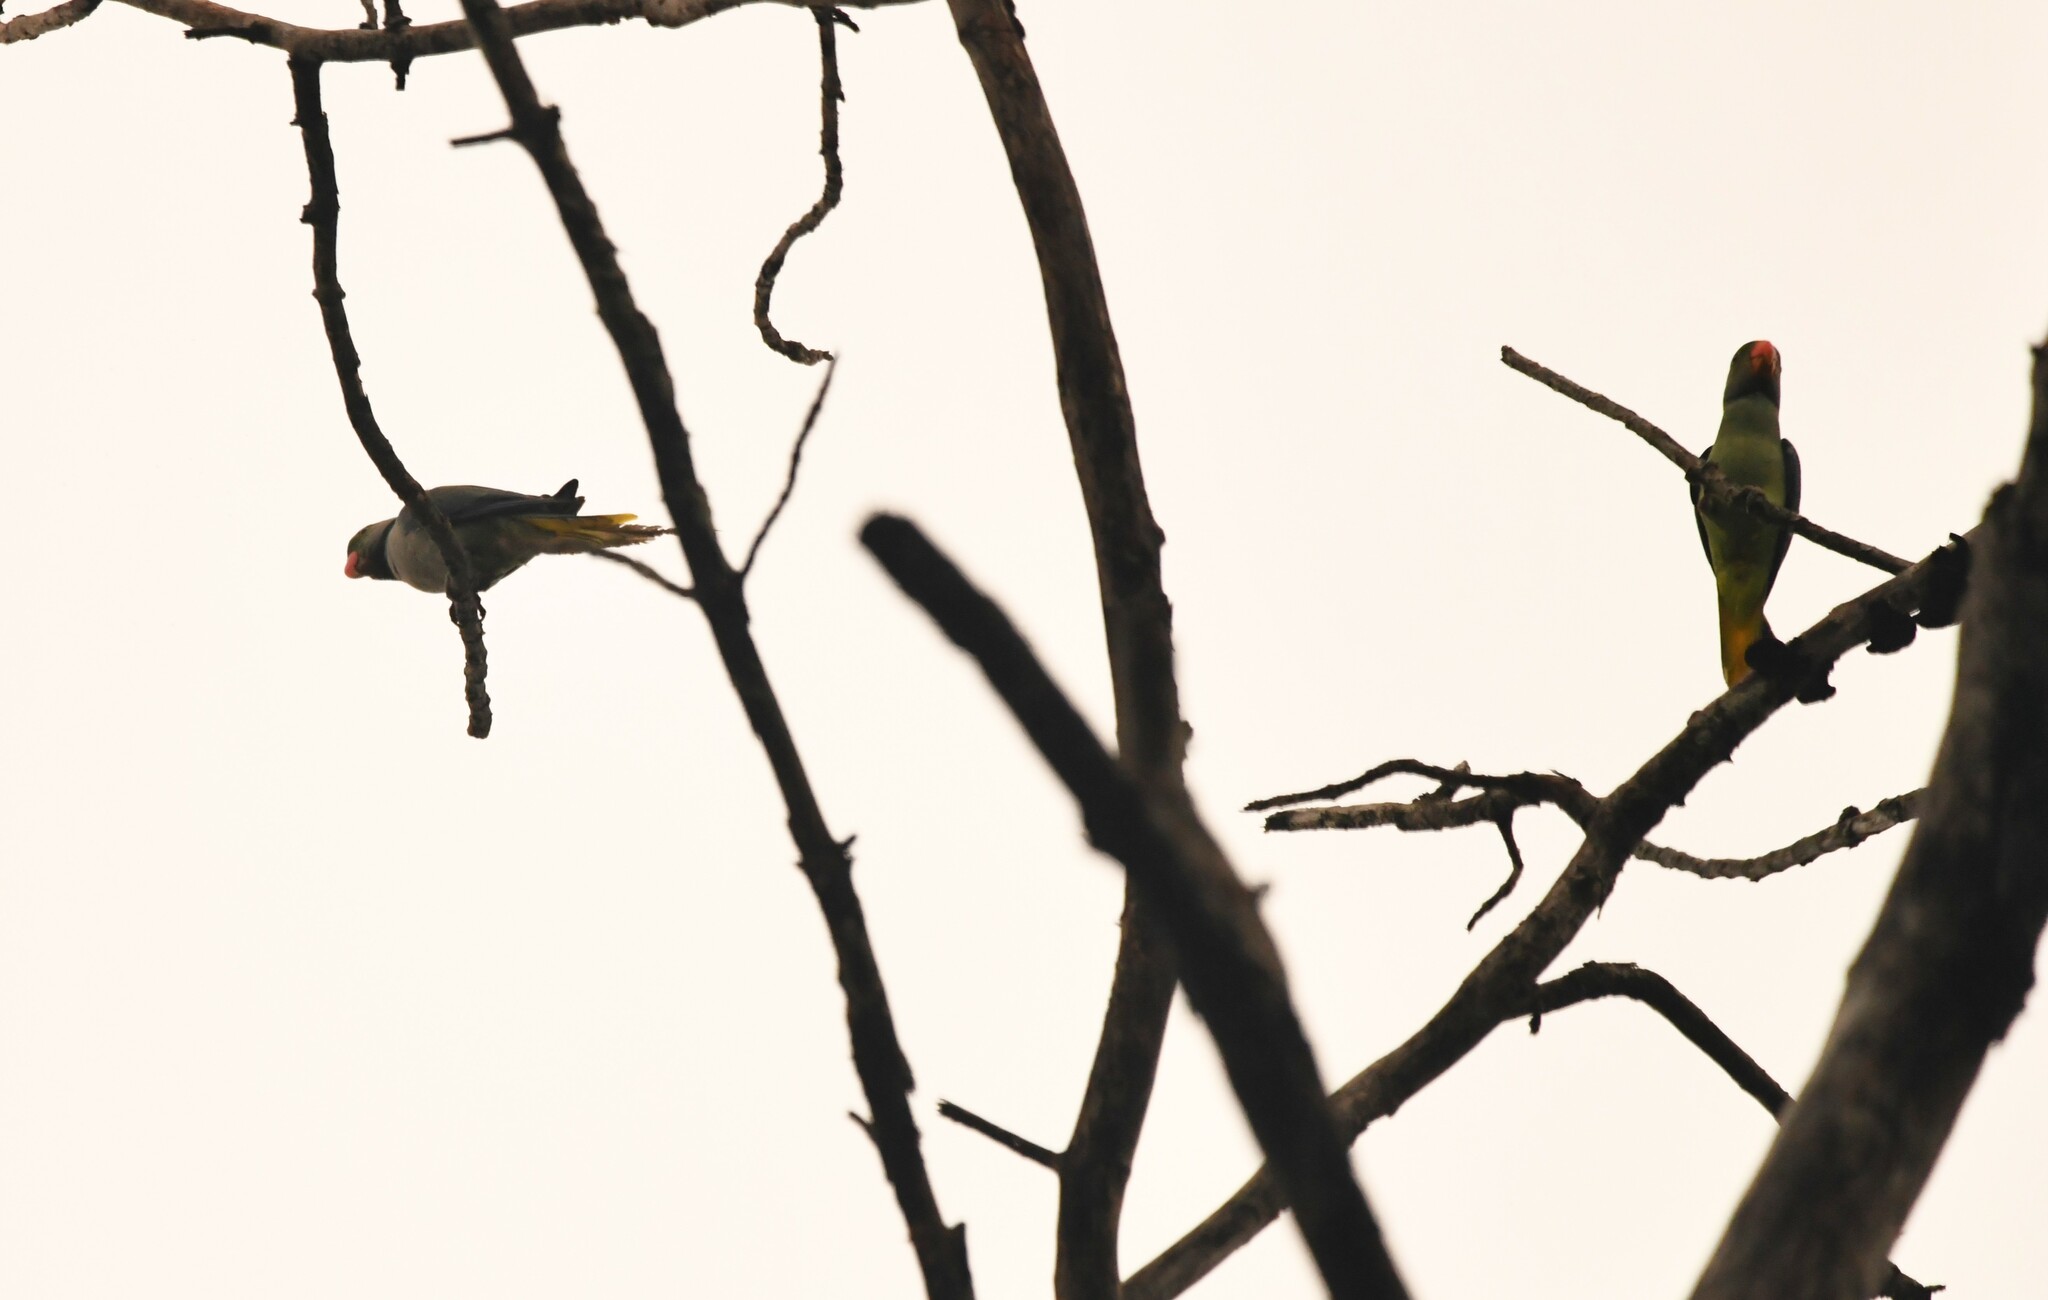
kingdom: Animalia
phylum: Chordata
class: Aves
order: Psittaciformes
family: Psittacidae
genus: Psittacula
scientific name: Psittacula columboides
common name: Blue-winged parakeet
